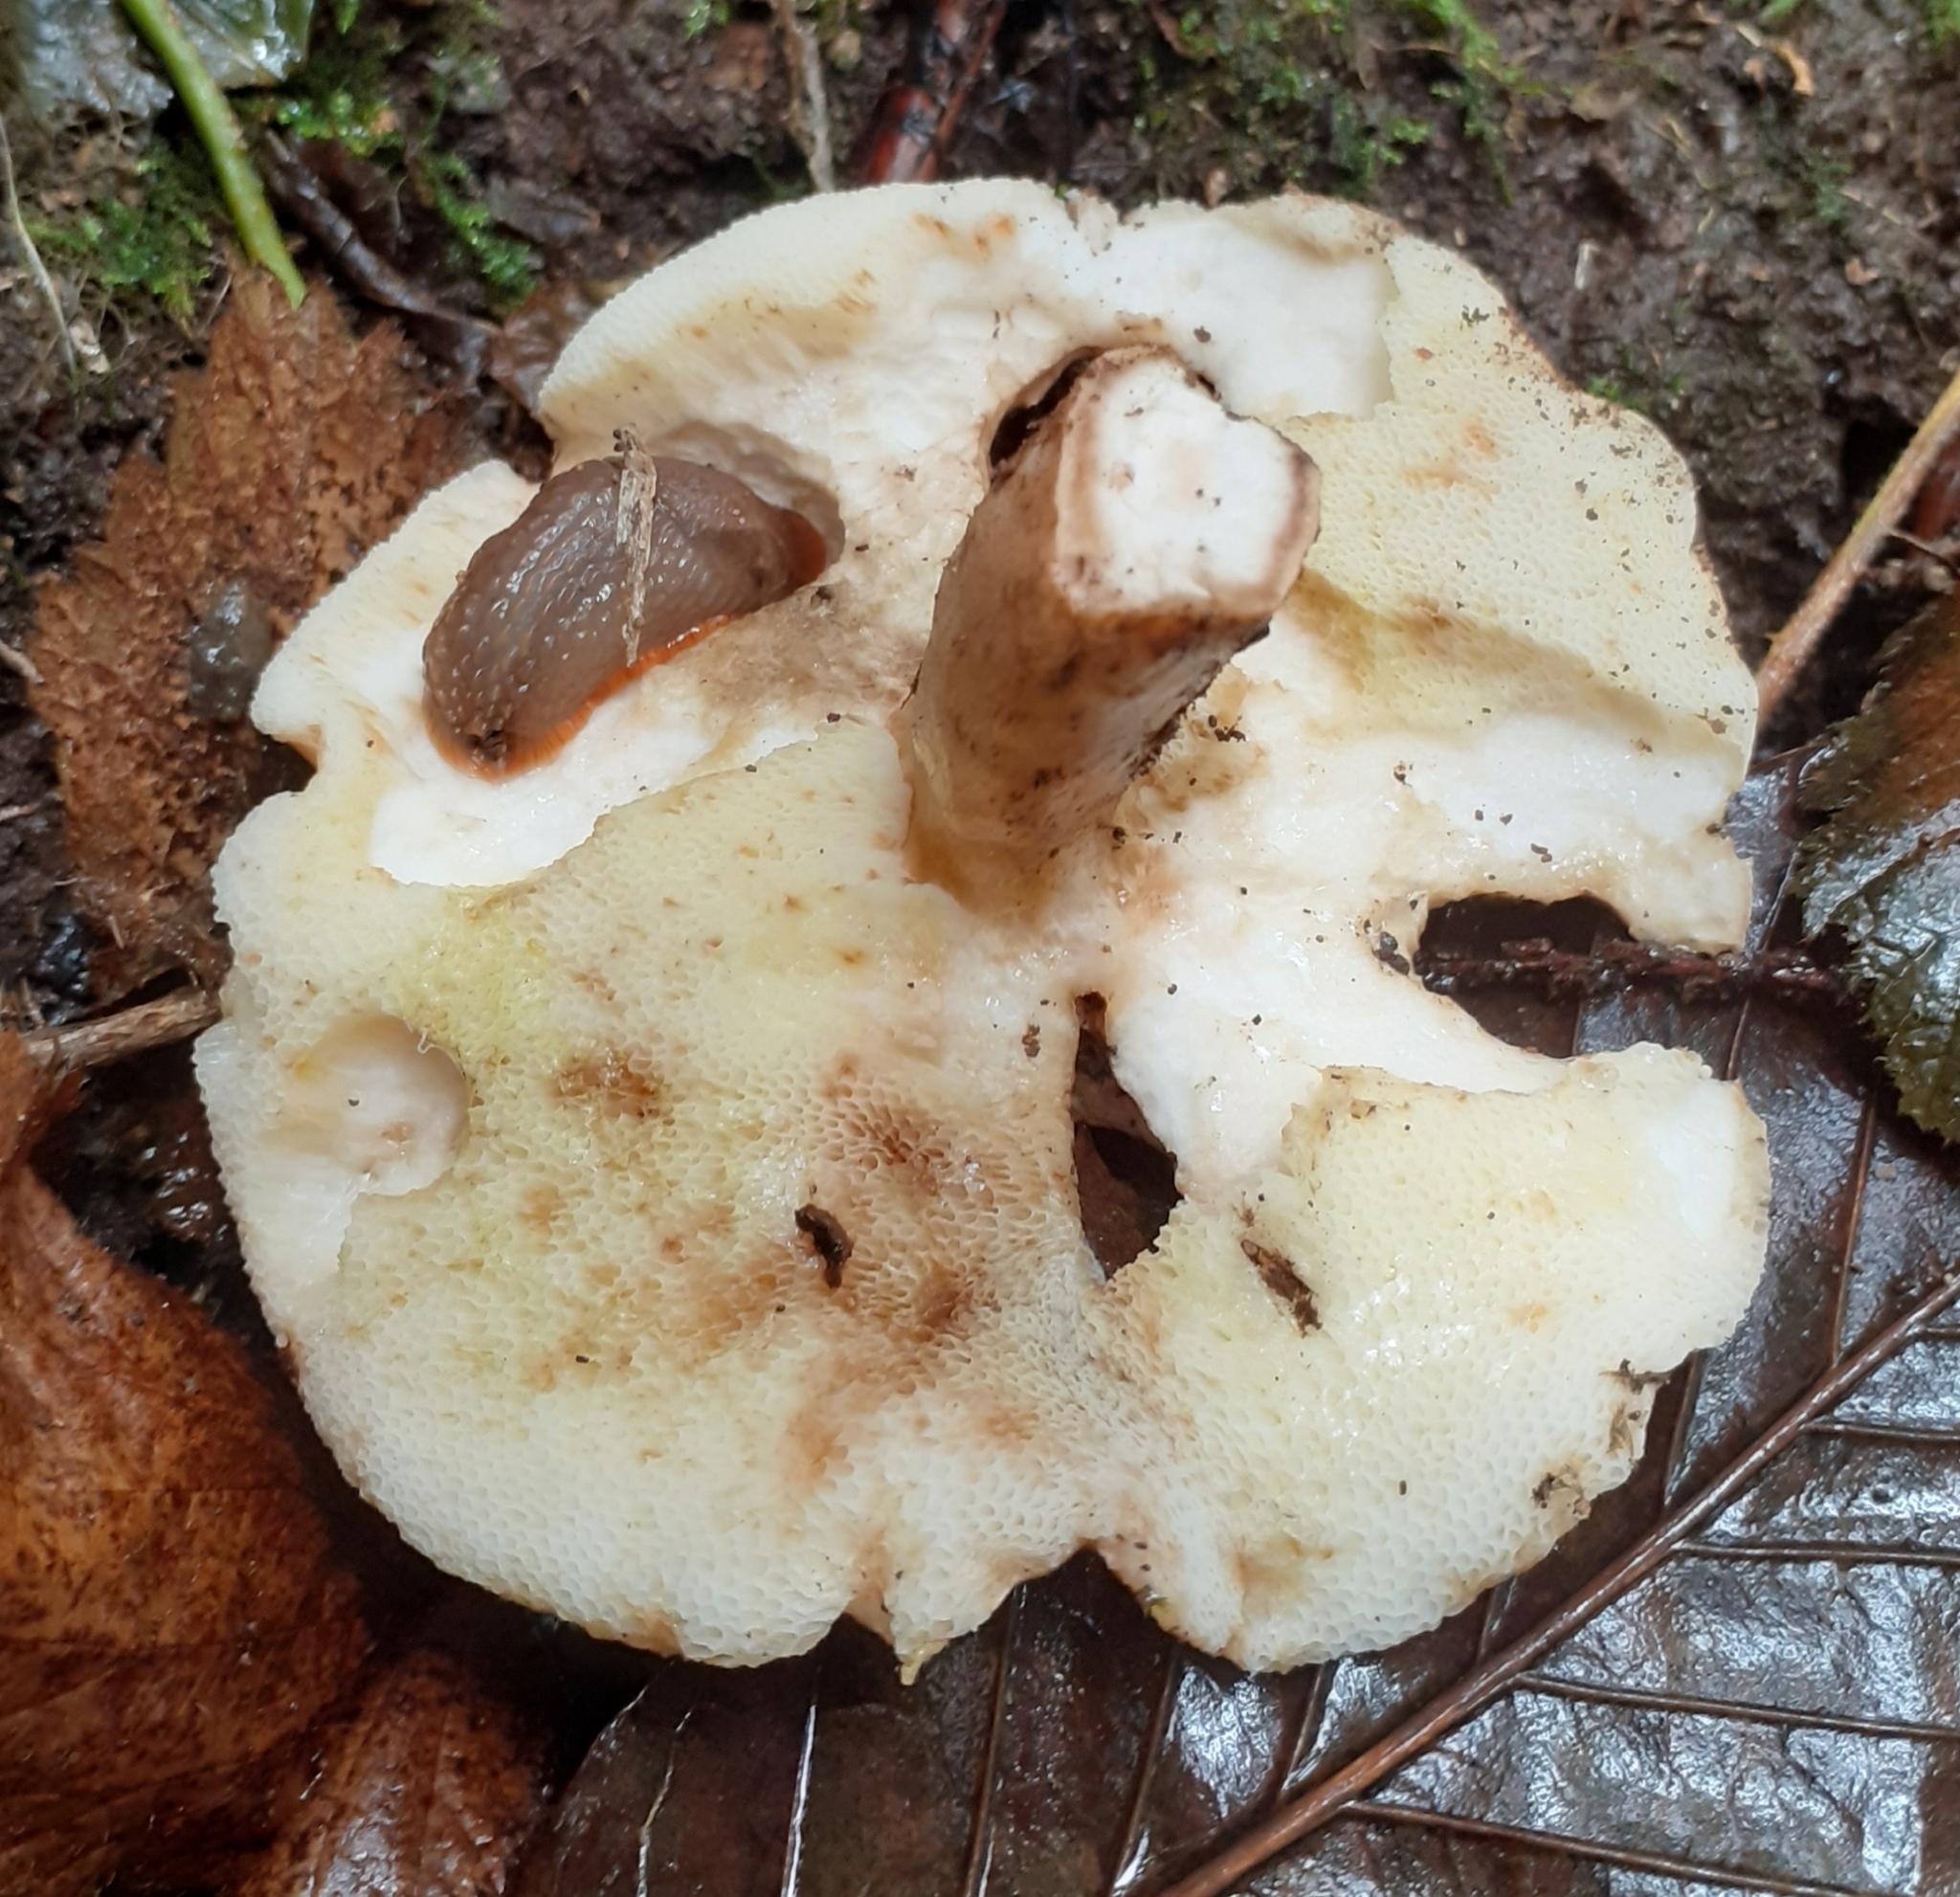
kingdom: Fungi
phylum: Basidiomycota
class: Agaricomycetes
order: Boletales
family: Gyroporaceae
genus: Gyroporus
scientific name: Gyroporus castaneus
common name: Chestnut bolete
